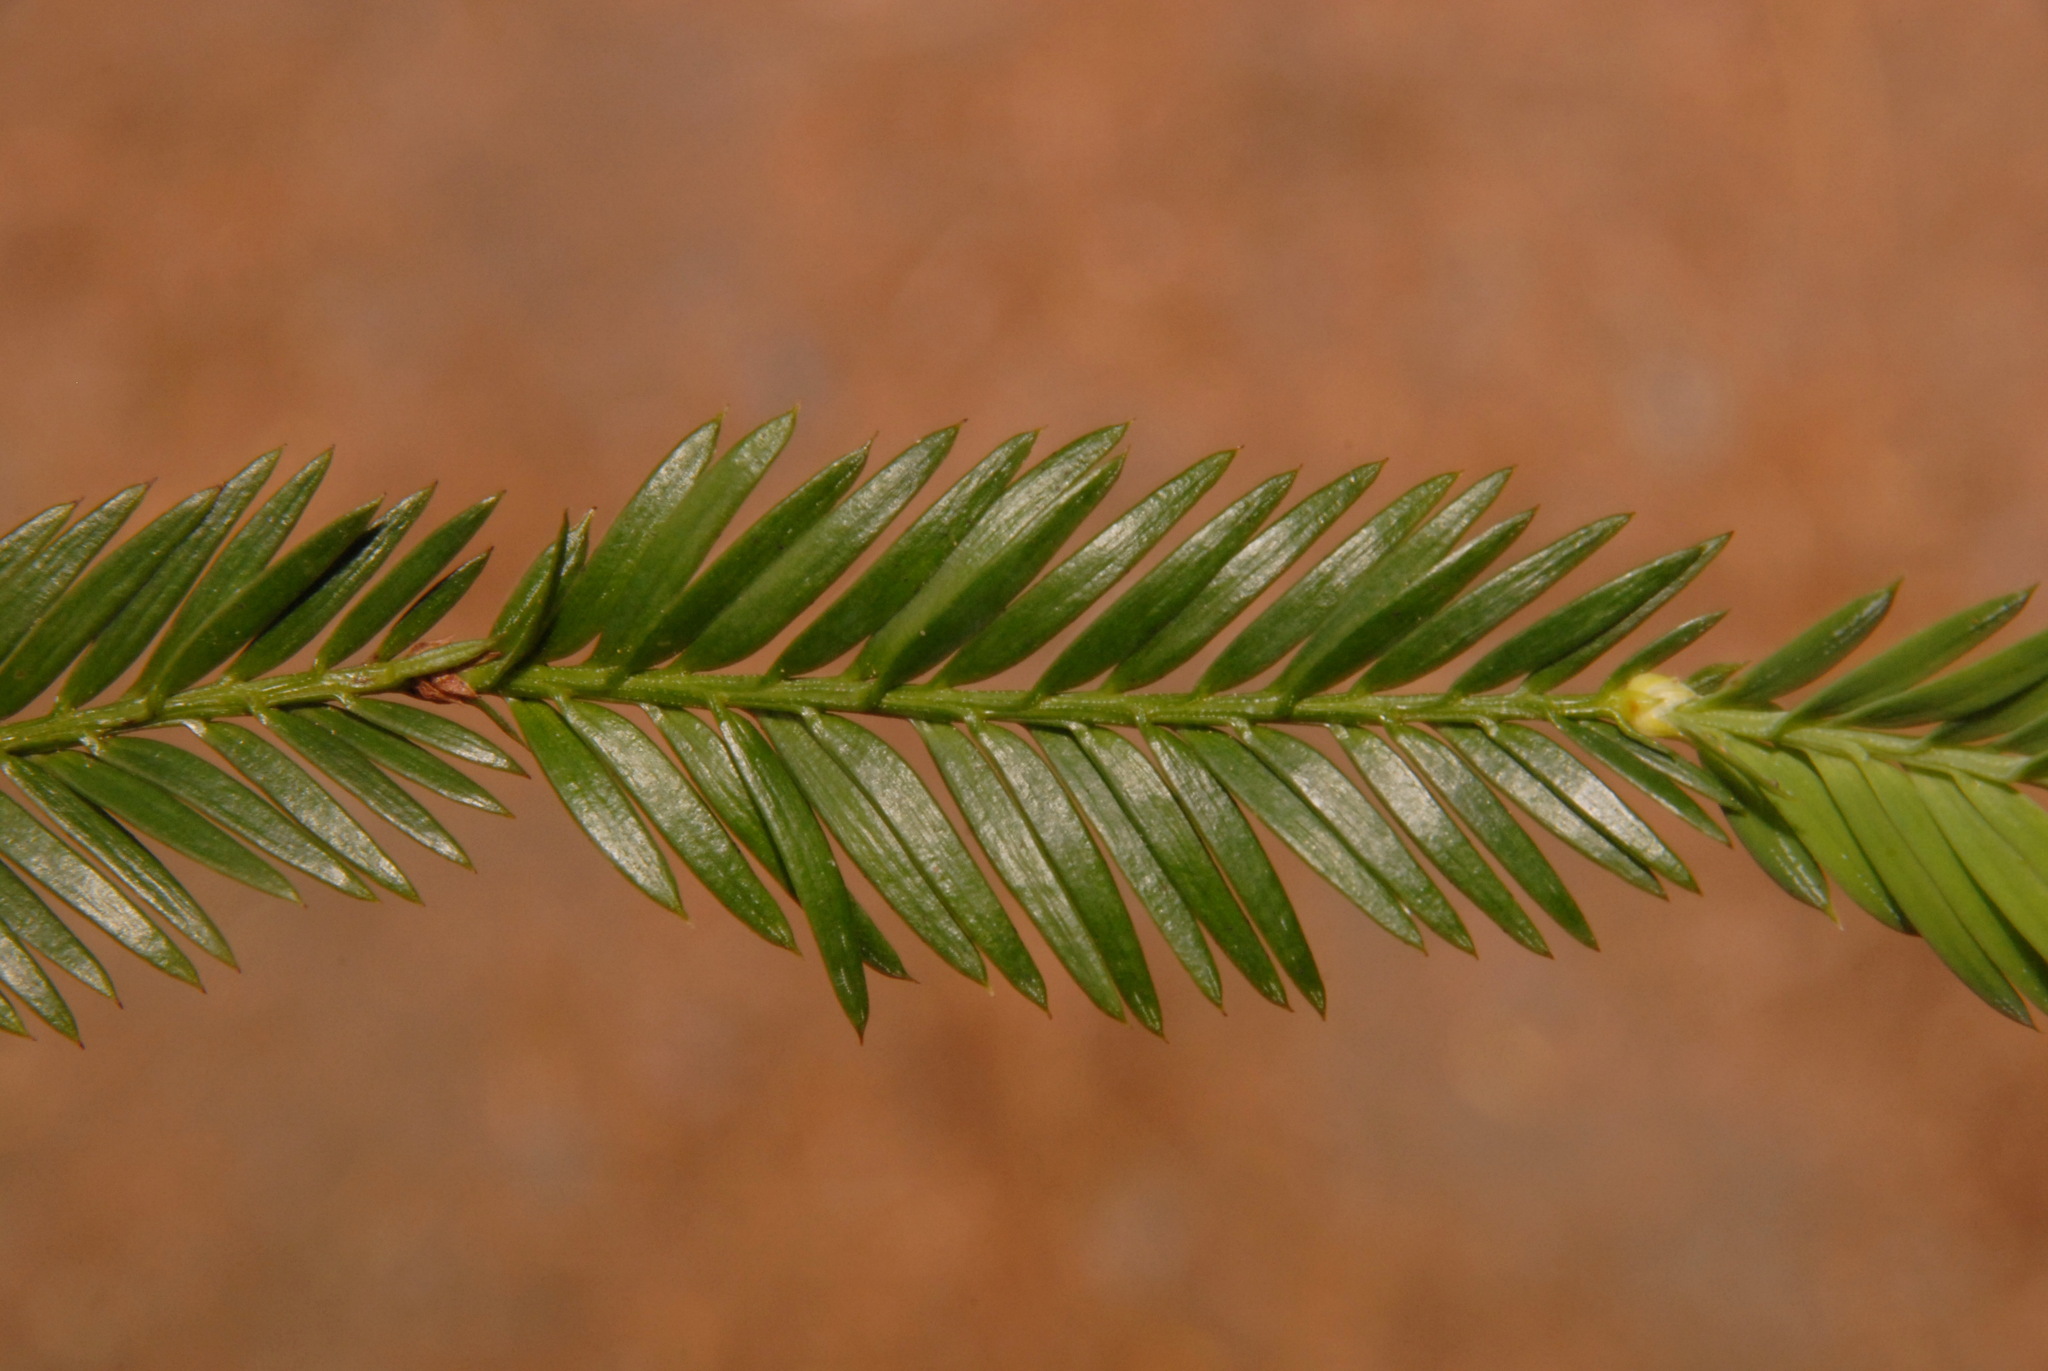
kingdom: Plantae
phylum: Tracheophyta
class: Pinopsida
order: Pinales
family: Cupressaceae
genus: Sequoia
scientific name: Sequoia sempervirens
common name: Coast redwood
